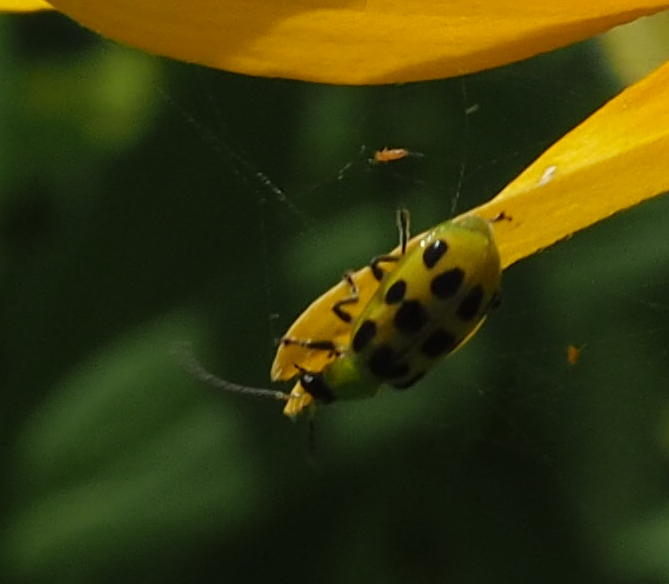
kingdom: Animalia
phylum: Arthropoda
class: Insecta
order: Coleoptera
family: Chrysomelidae
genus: Diabrotica
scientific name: Diabrotica undecimpunctata
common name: Spotted cucumber beetle
